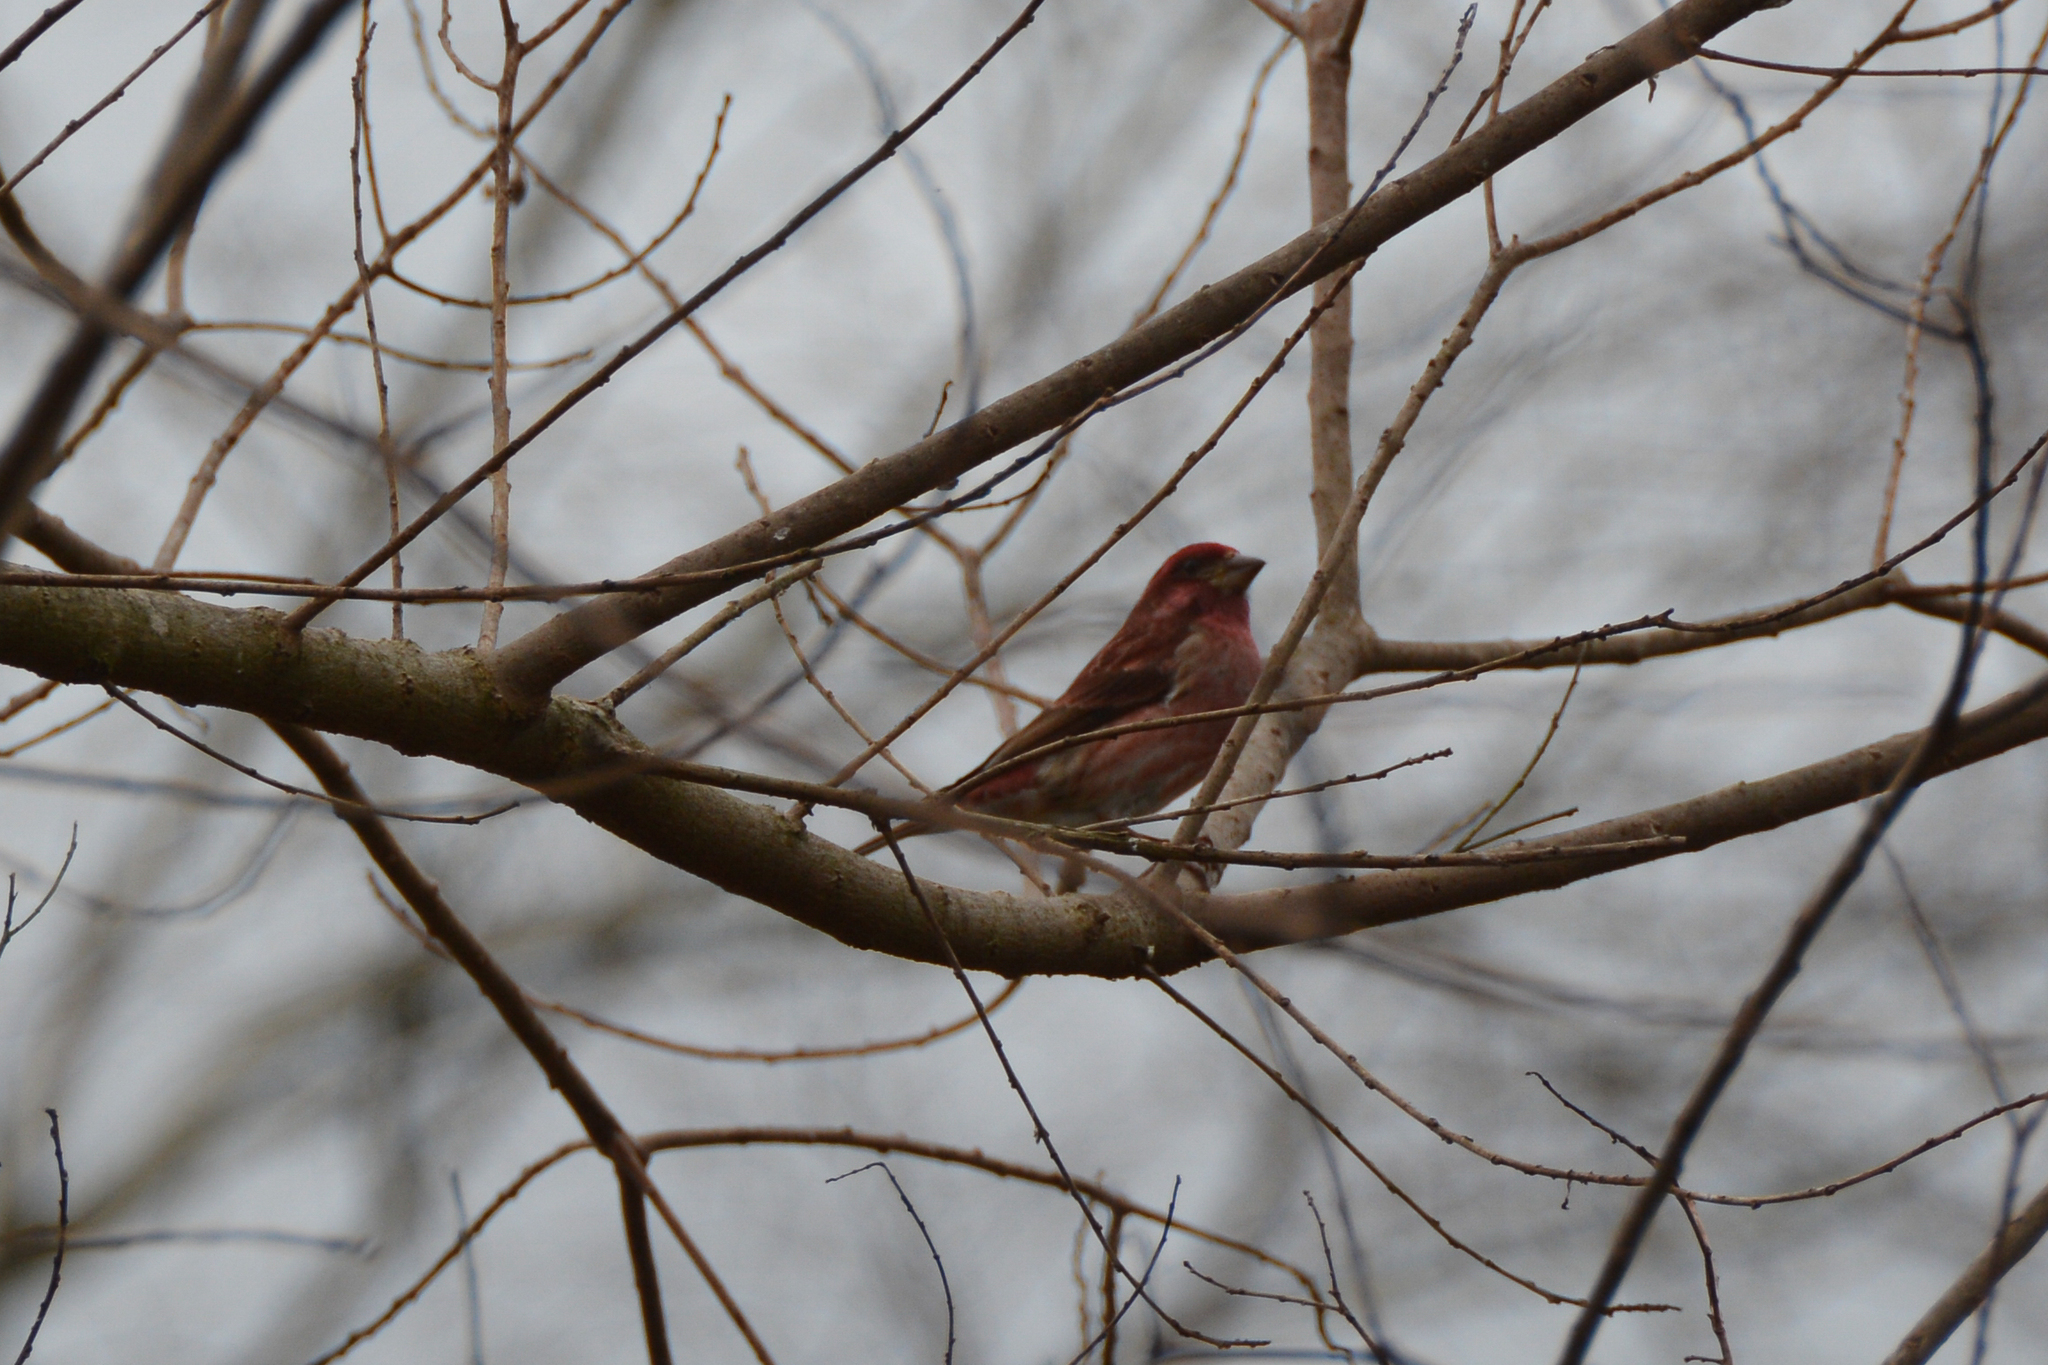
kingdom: Animalia
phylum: Chordata
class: Aves
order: Passeriformes
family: Fringillidae
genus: Haemorhous
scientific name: Haemorhous purpureus
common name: Purple finch
